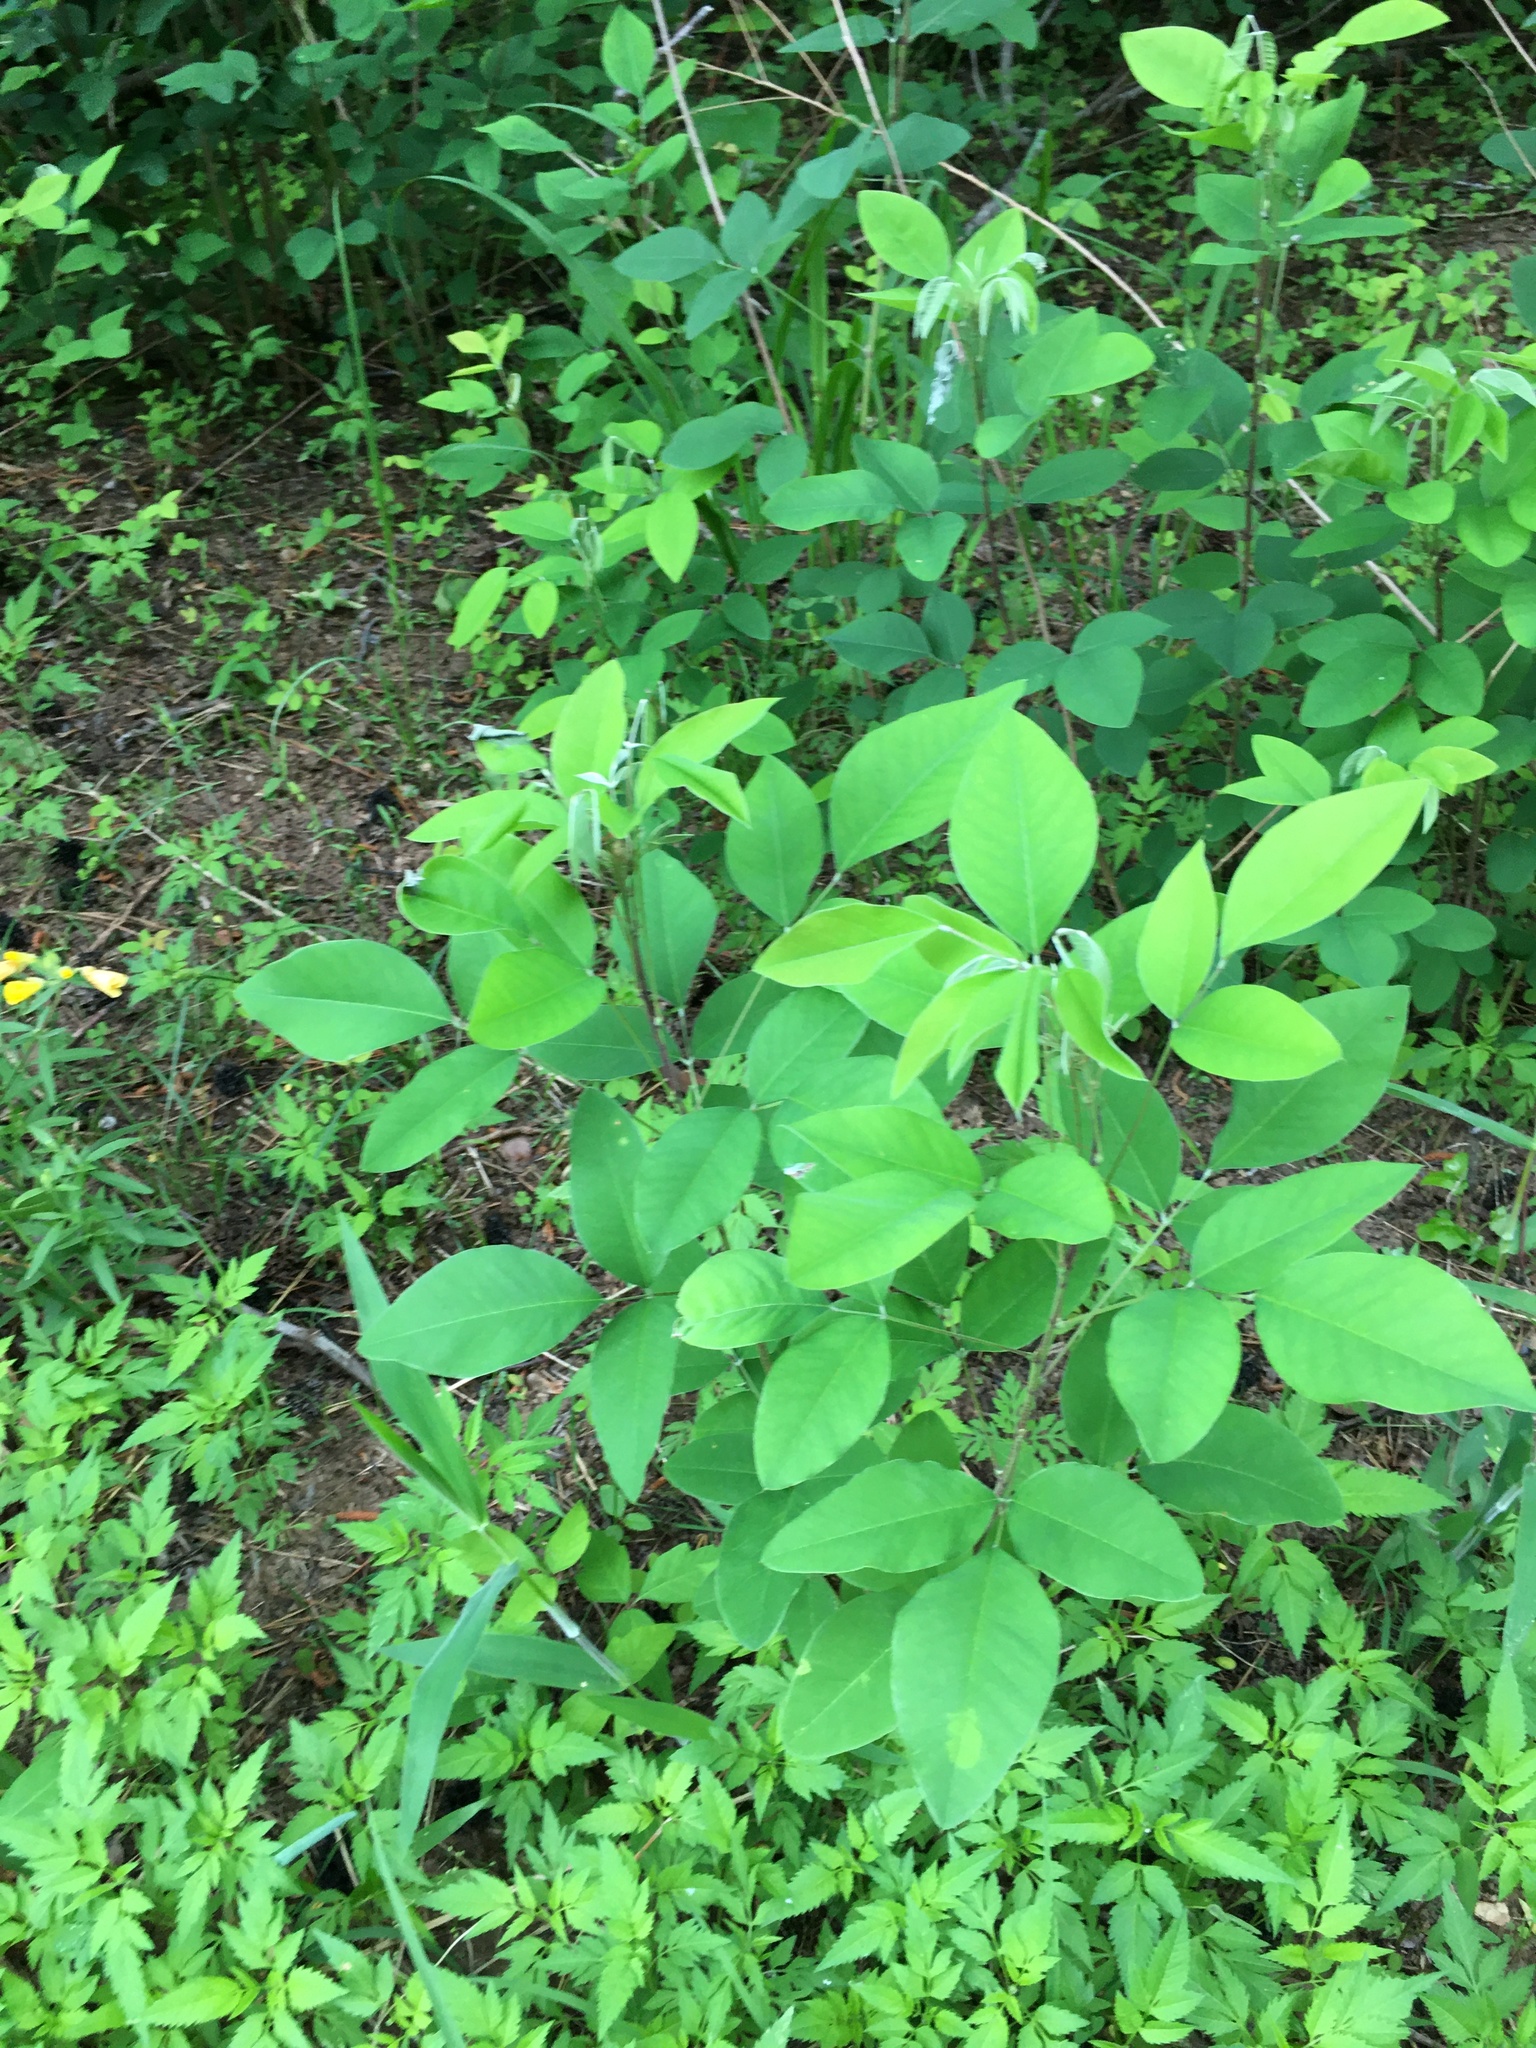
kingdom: Plantae
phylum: Tracheophyta
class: Magnoliopsida
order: Fabales
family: Fabaceae
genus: Lespedeza
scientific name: Lespedeza bicolor
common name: Shrub lespedeza
